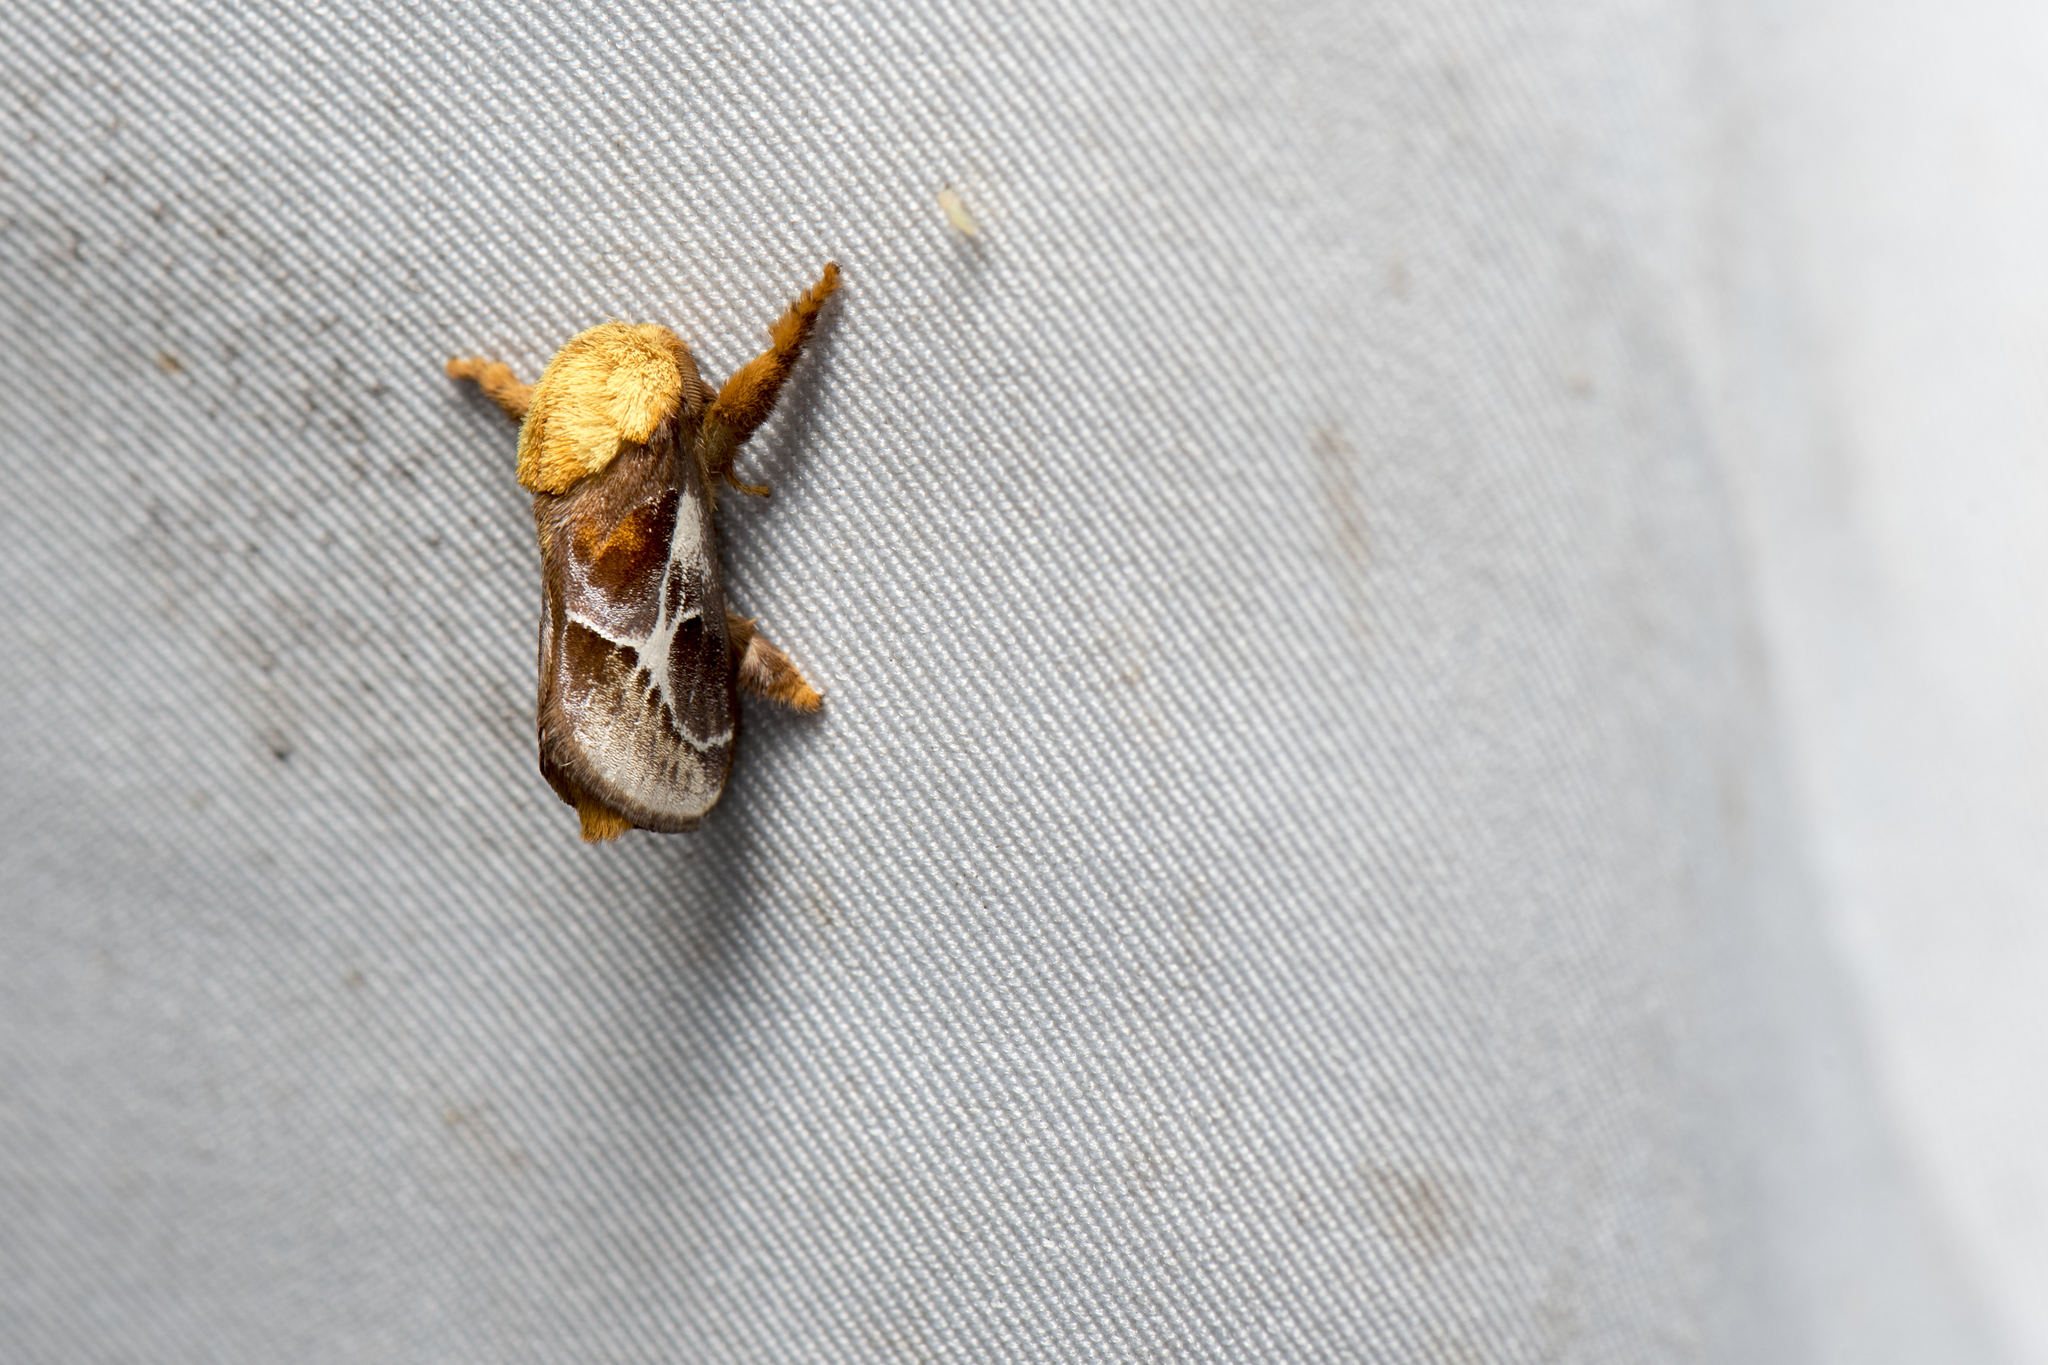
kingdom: Animalia
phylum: Arthropoda
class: Insecta
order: Lepidoptera
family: Limacodidae
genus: Miresa
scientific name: Miresa fulgida
